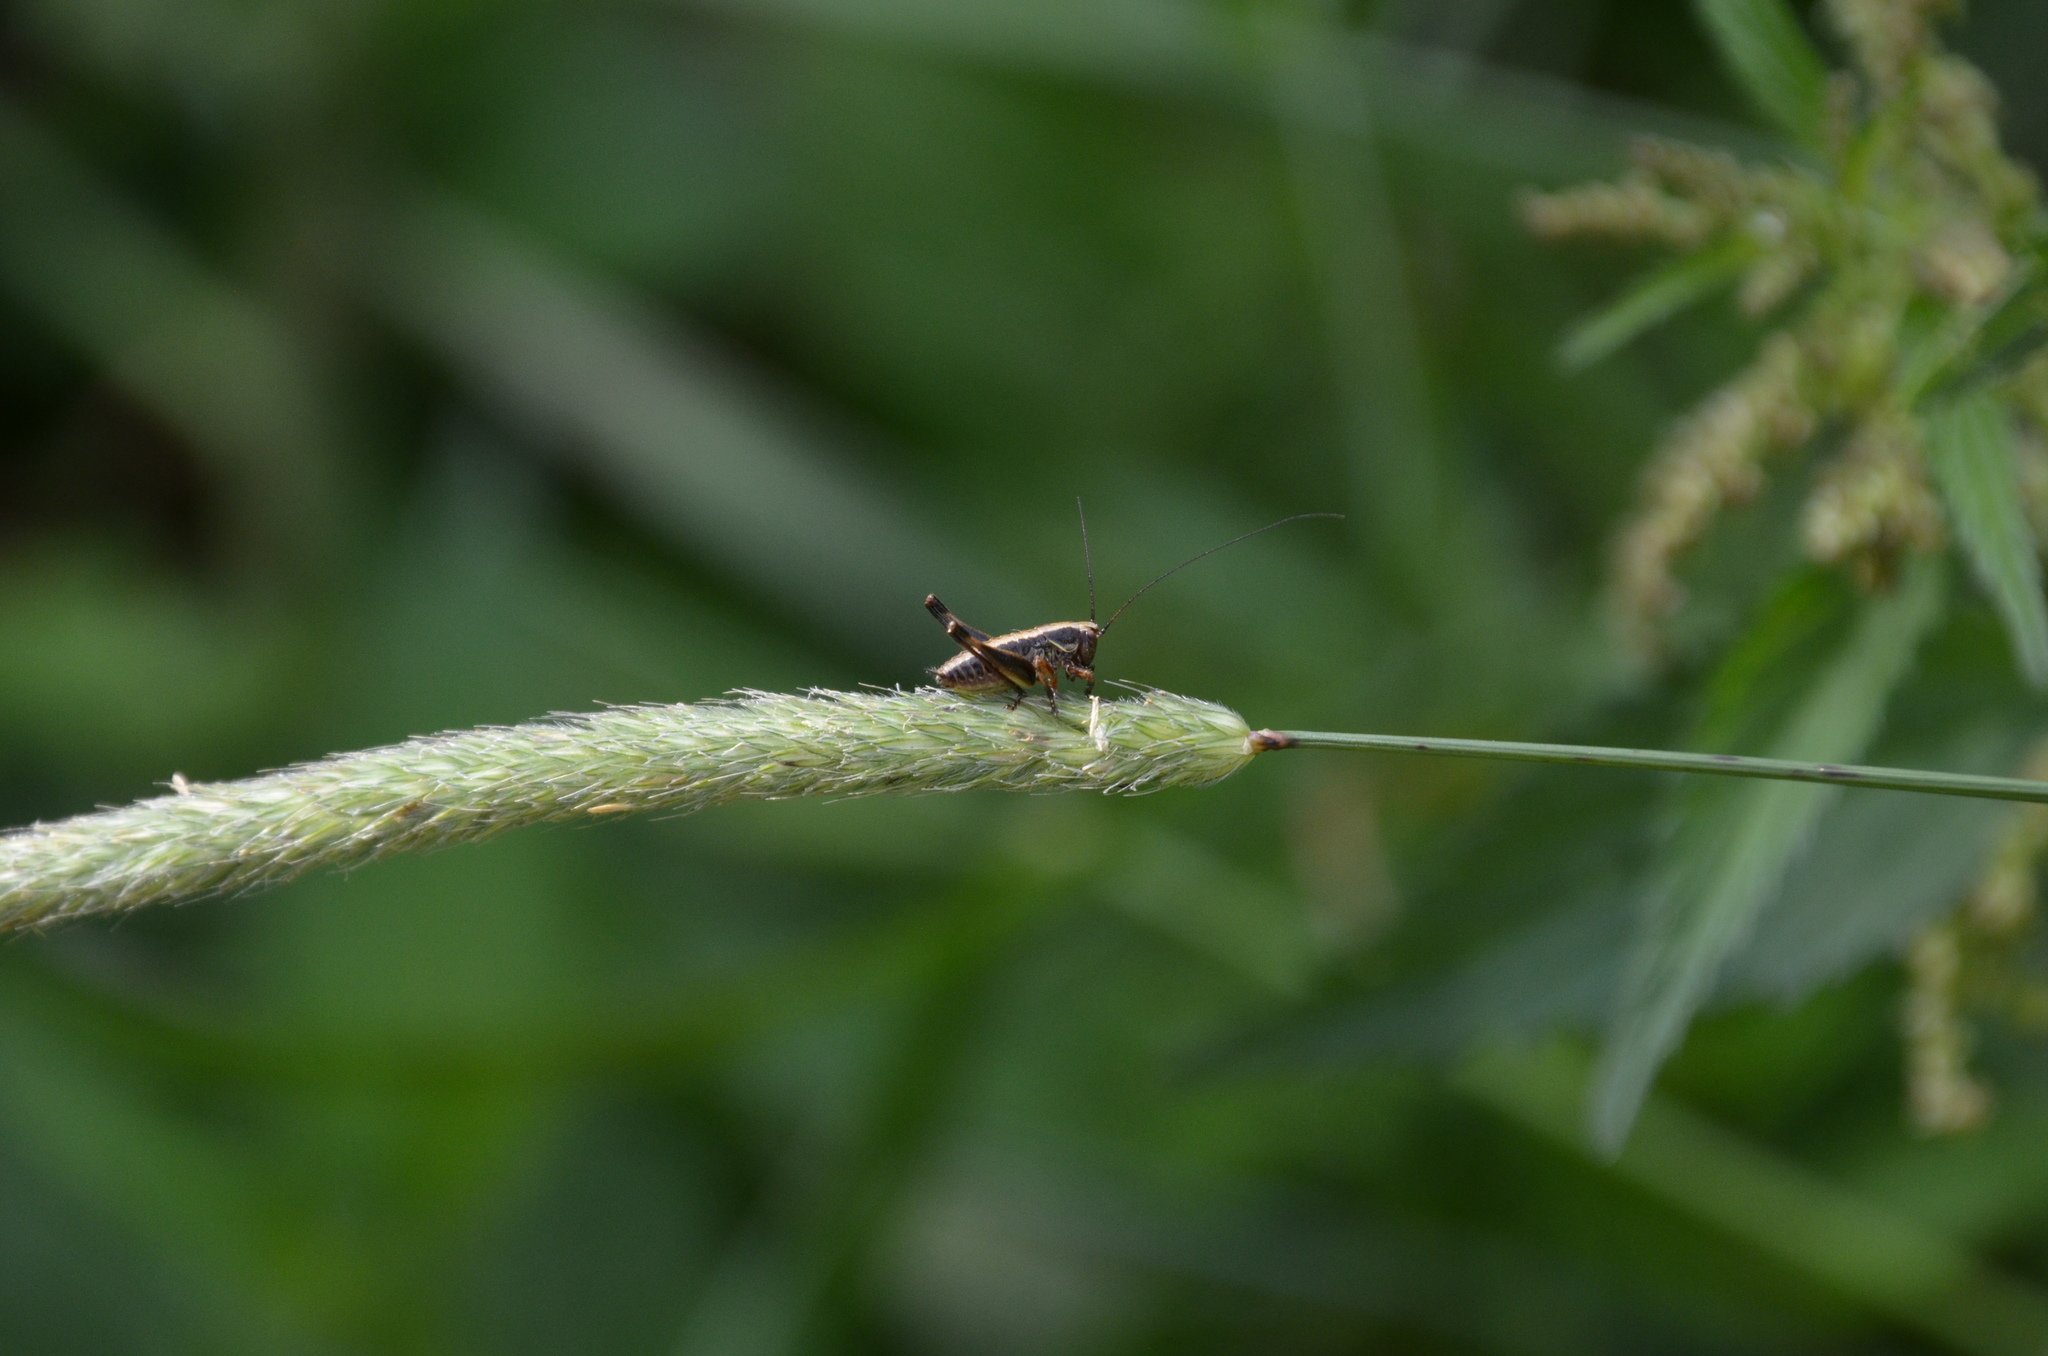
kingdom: Animalia
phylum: Arthropoda
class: Insecta
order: Orthoptera
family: Tettigoniidae
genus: Pholidoptera
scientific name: Pholidoptera griseoaptera
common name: Dark bush-cricket
